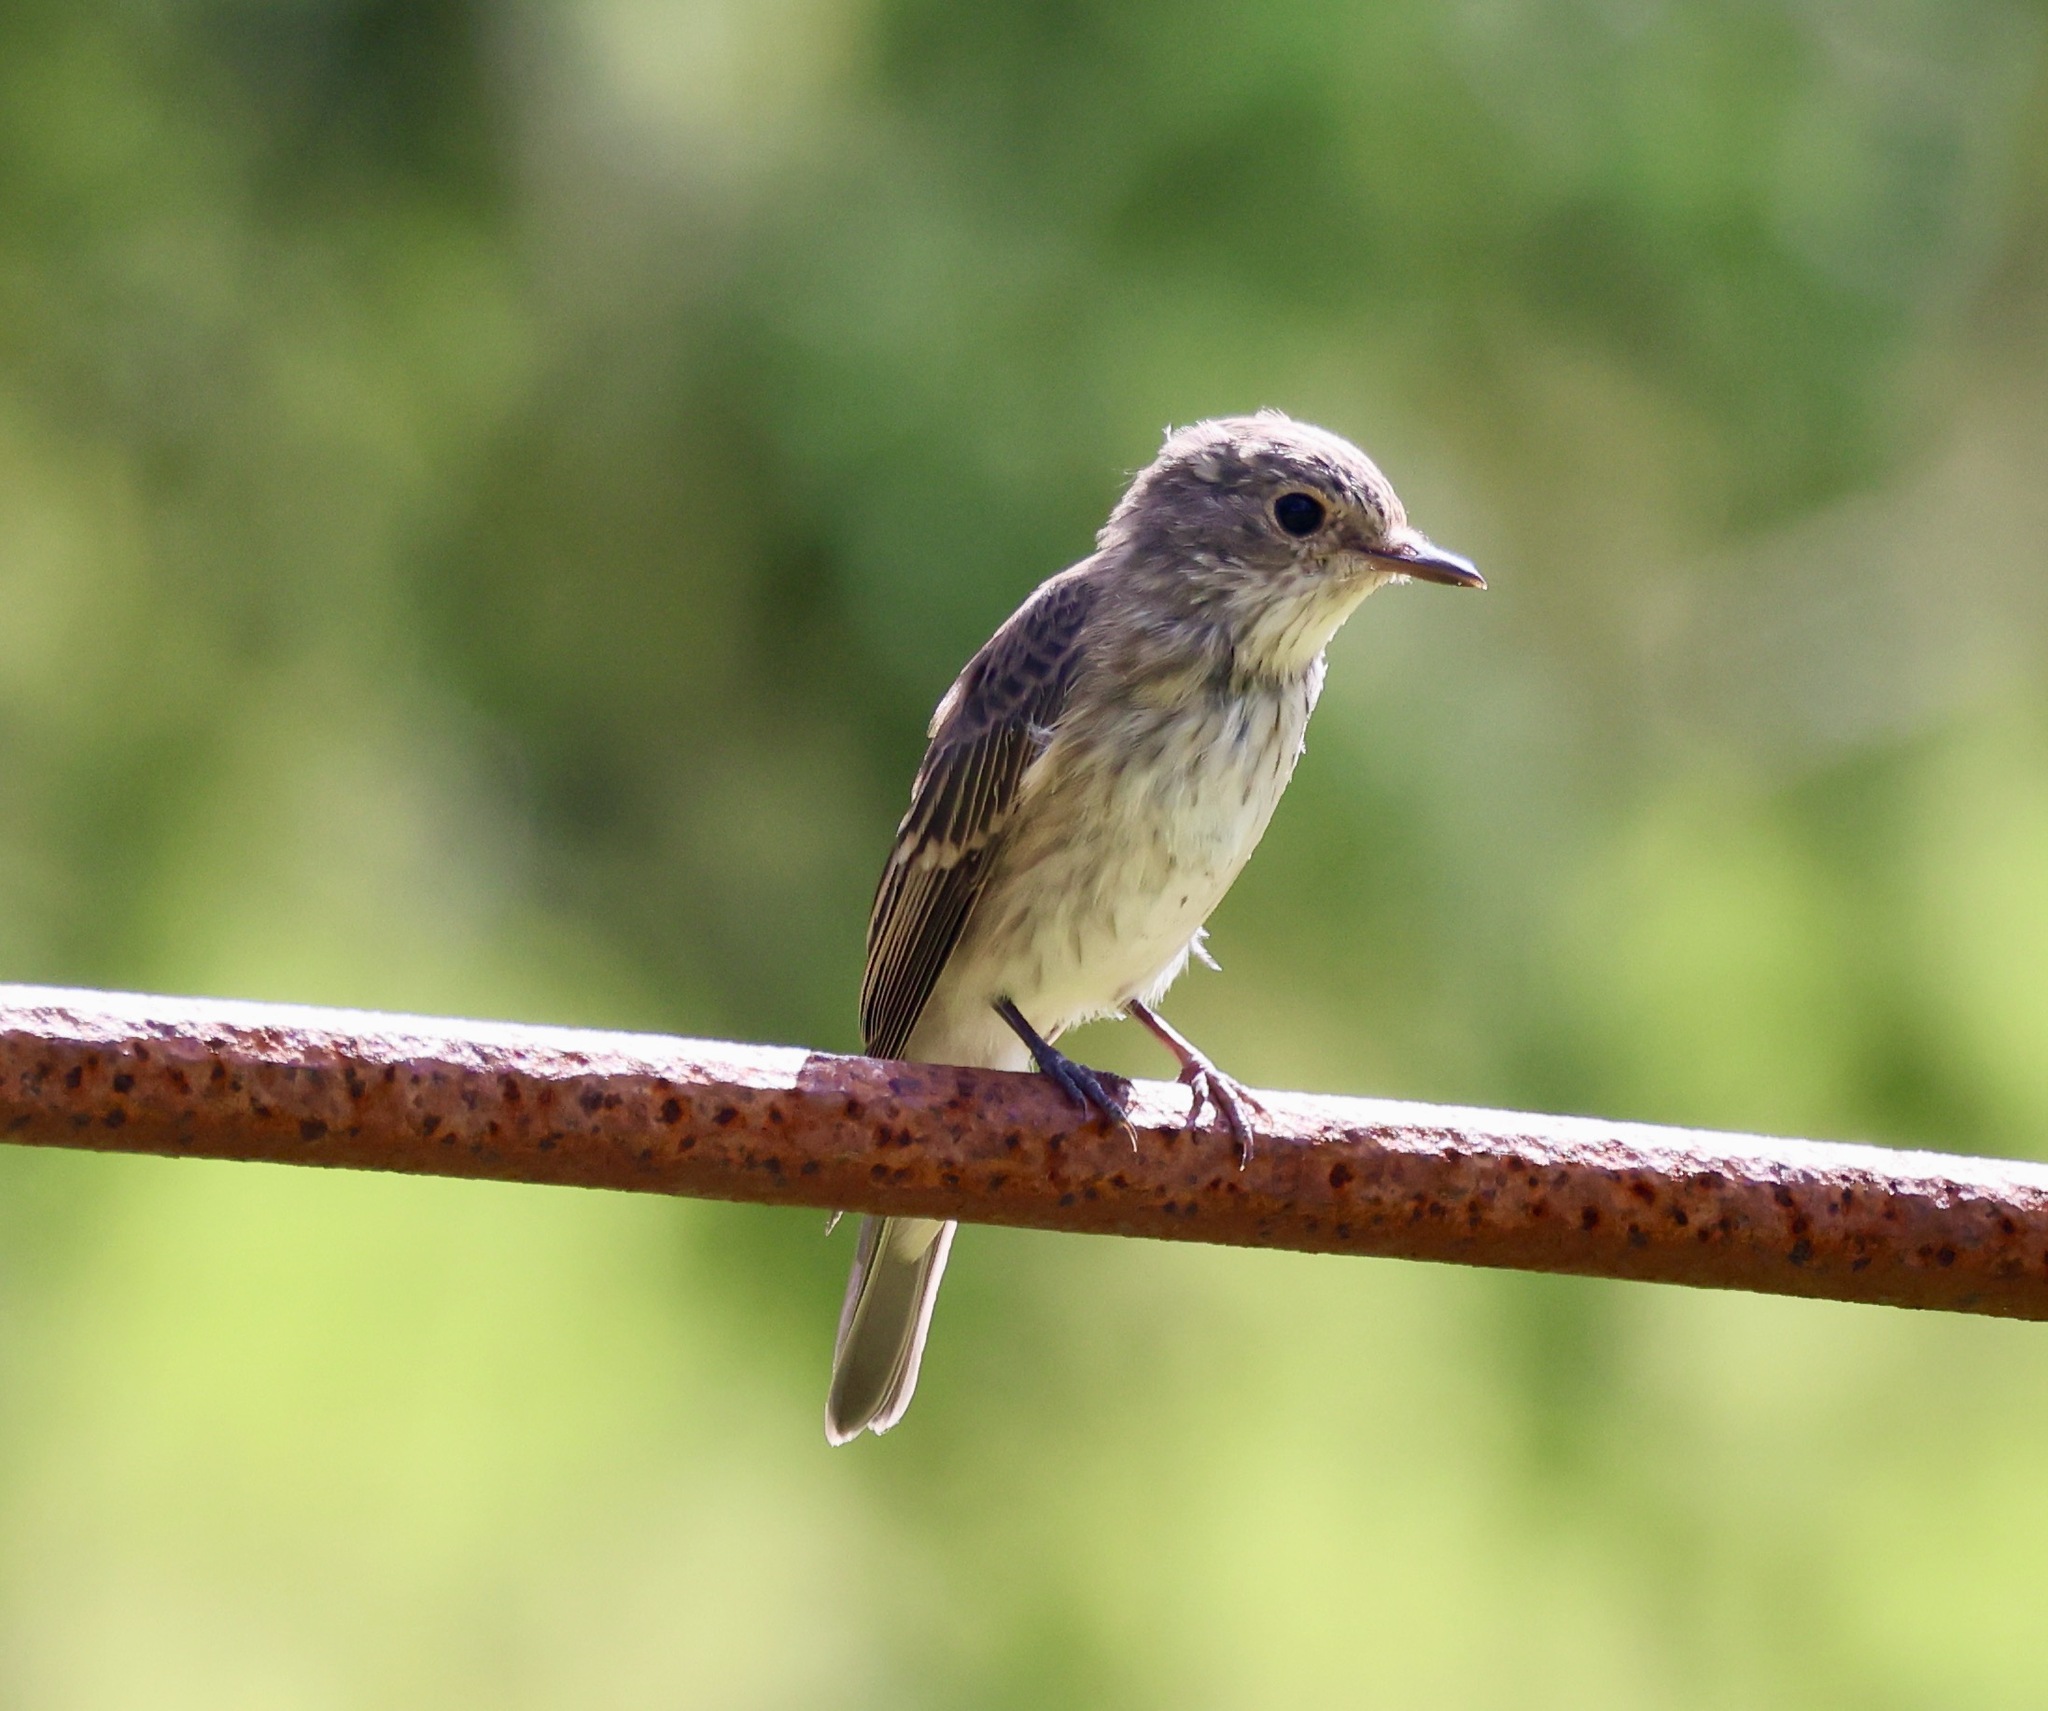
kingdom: Animalia
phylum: Chordata
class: Aves
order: Passeriformes
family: Muscicapidae
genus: Muscicapa
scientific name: Muscicapa striata
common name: Spotted flycatcher
